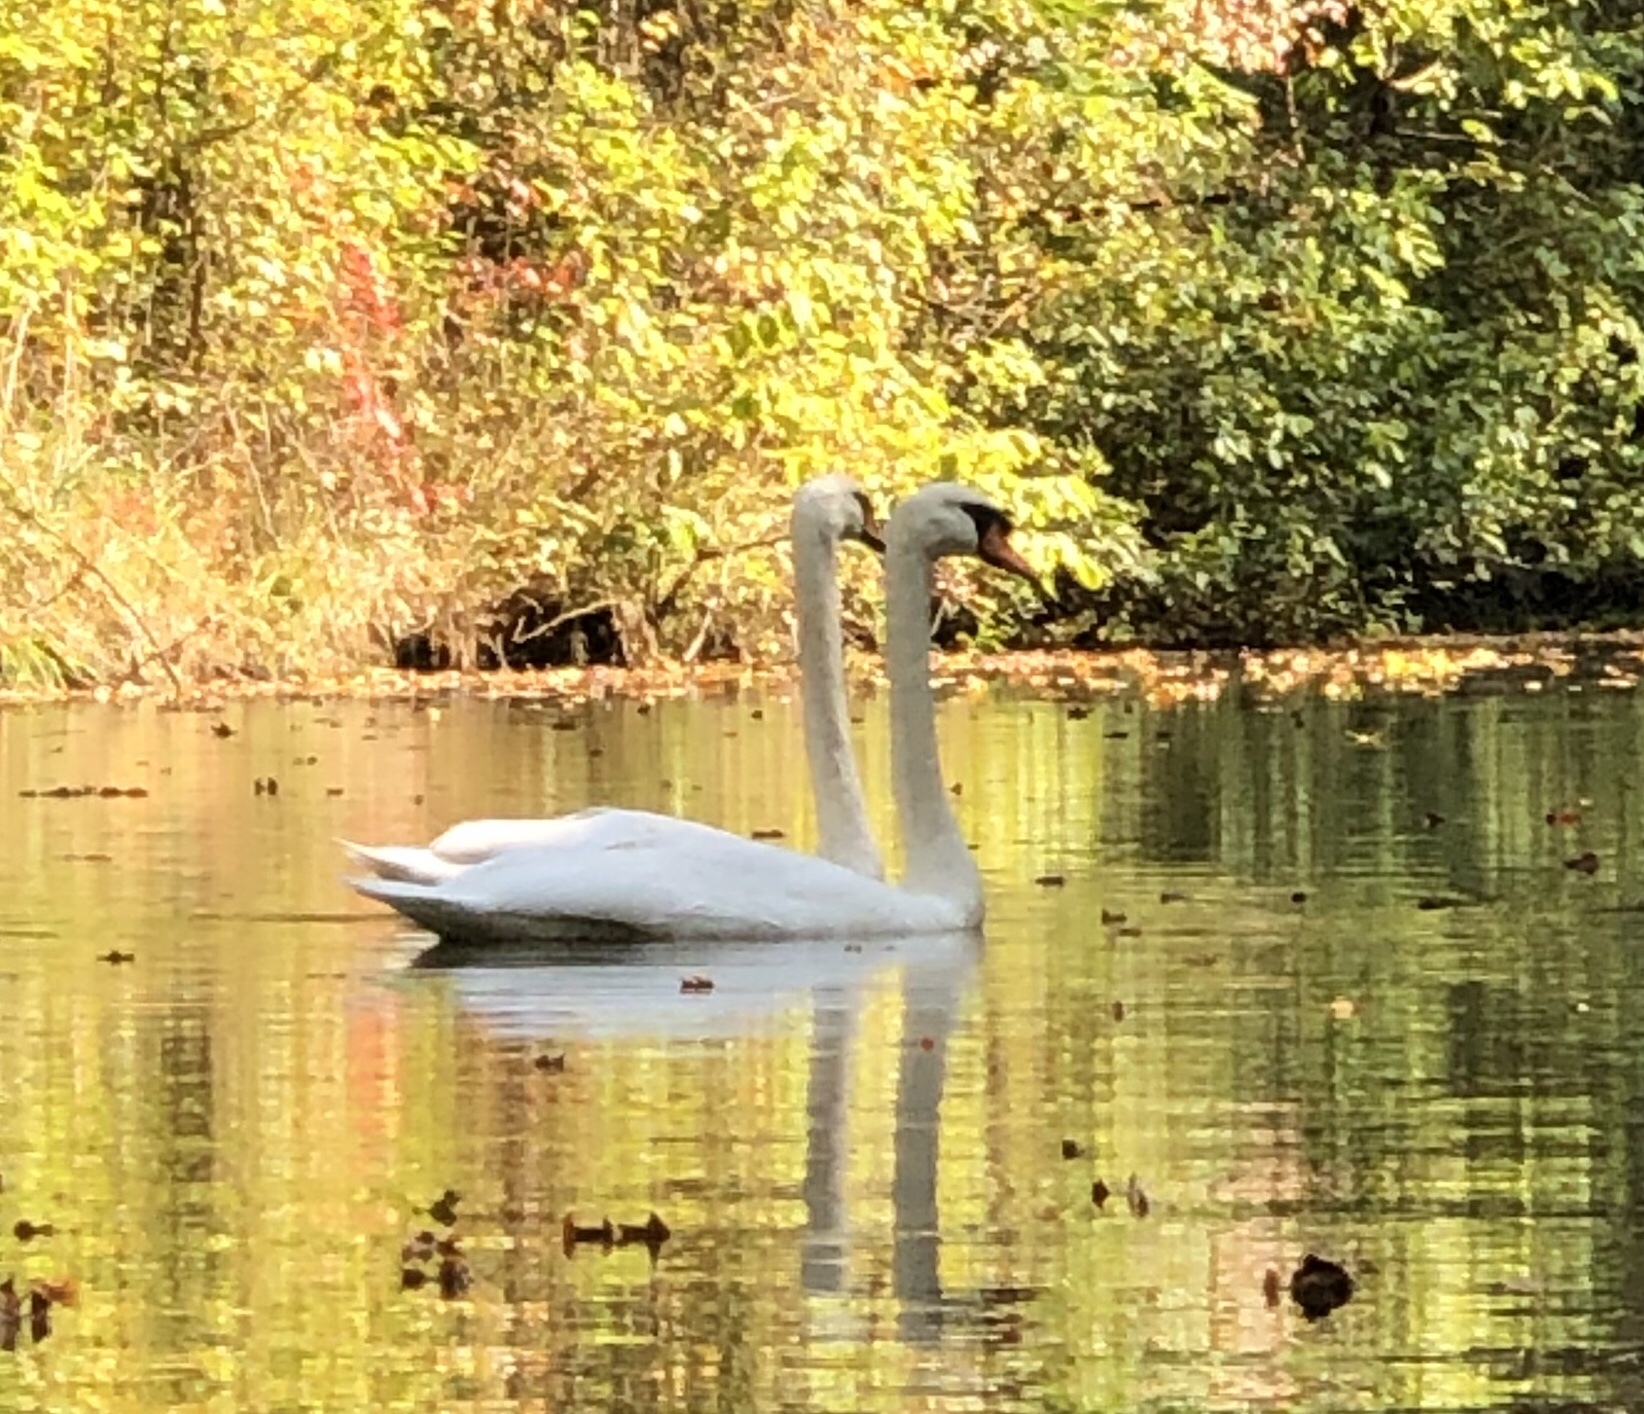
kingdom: Animalia
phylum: Chordata
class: Aves
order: Anseriformes
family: Anatidae
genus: Cygnus
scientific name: Cygnus olor
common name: Mute swan
